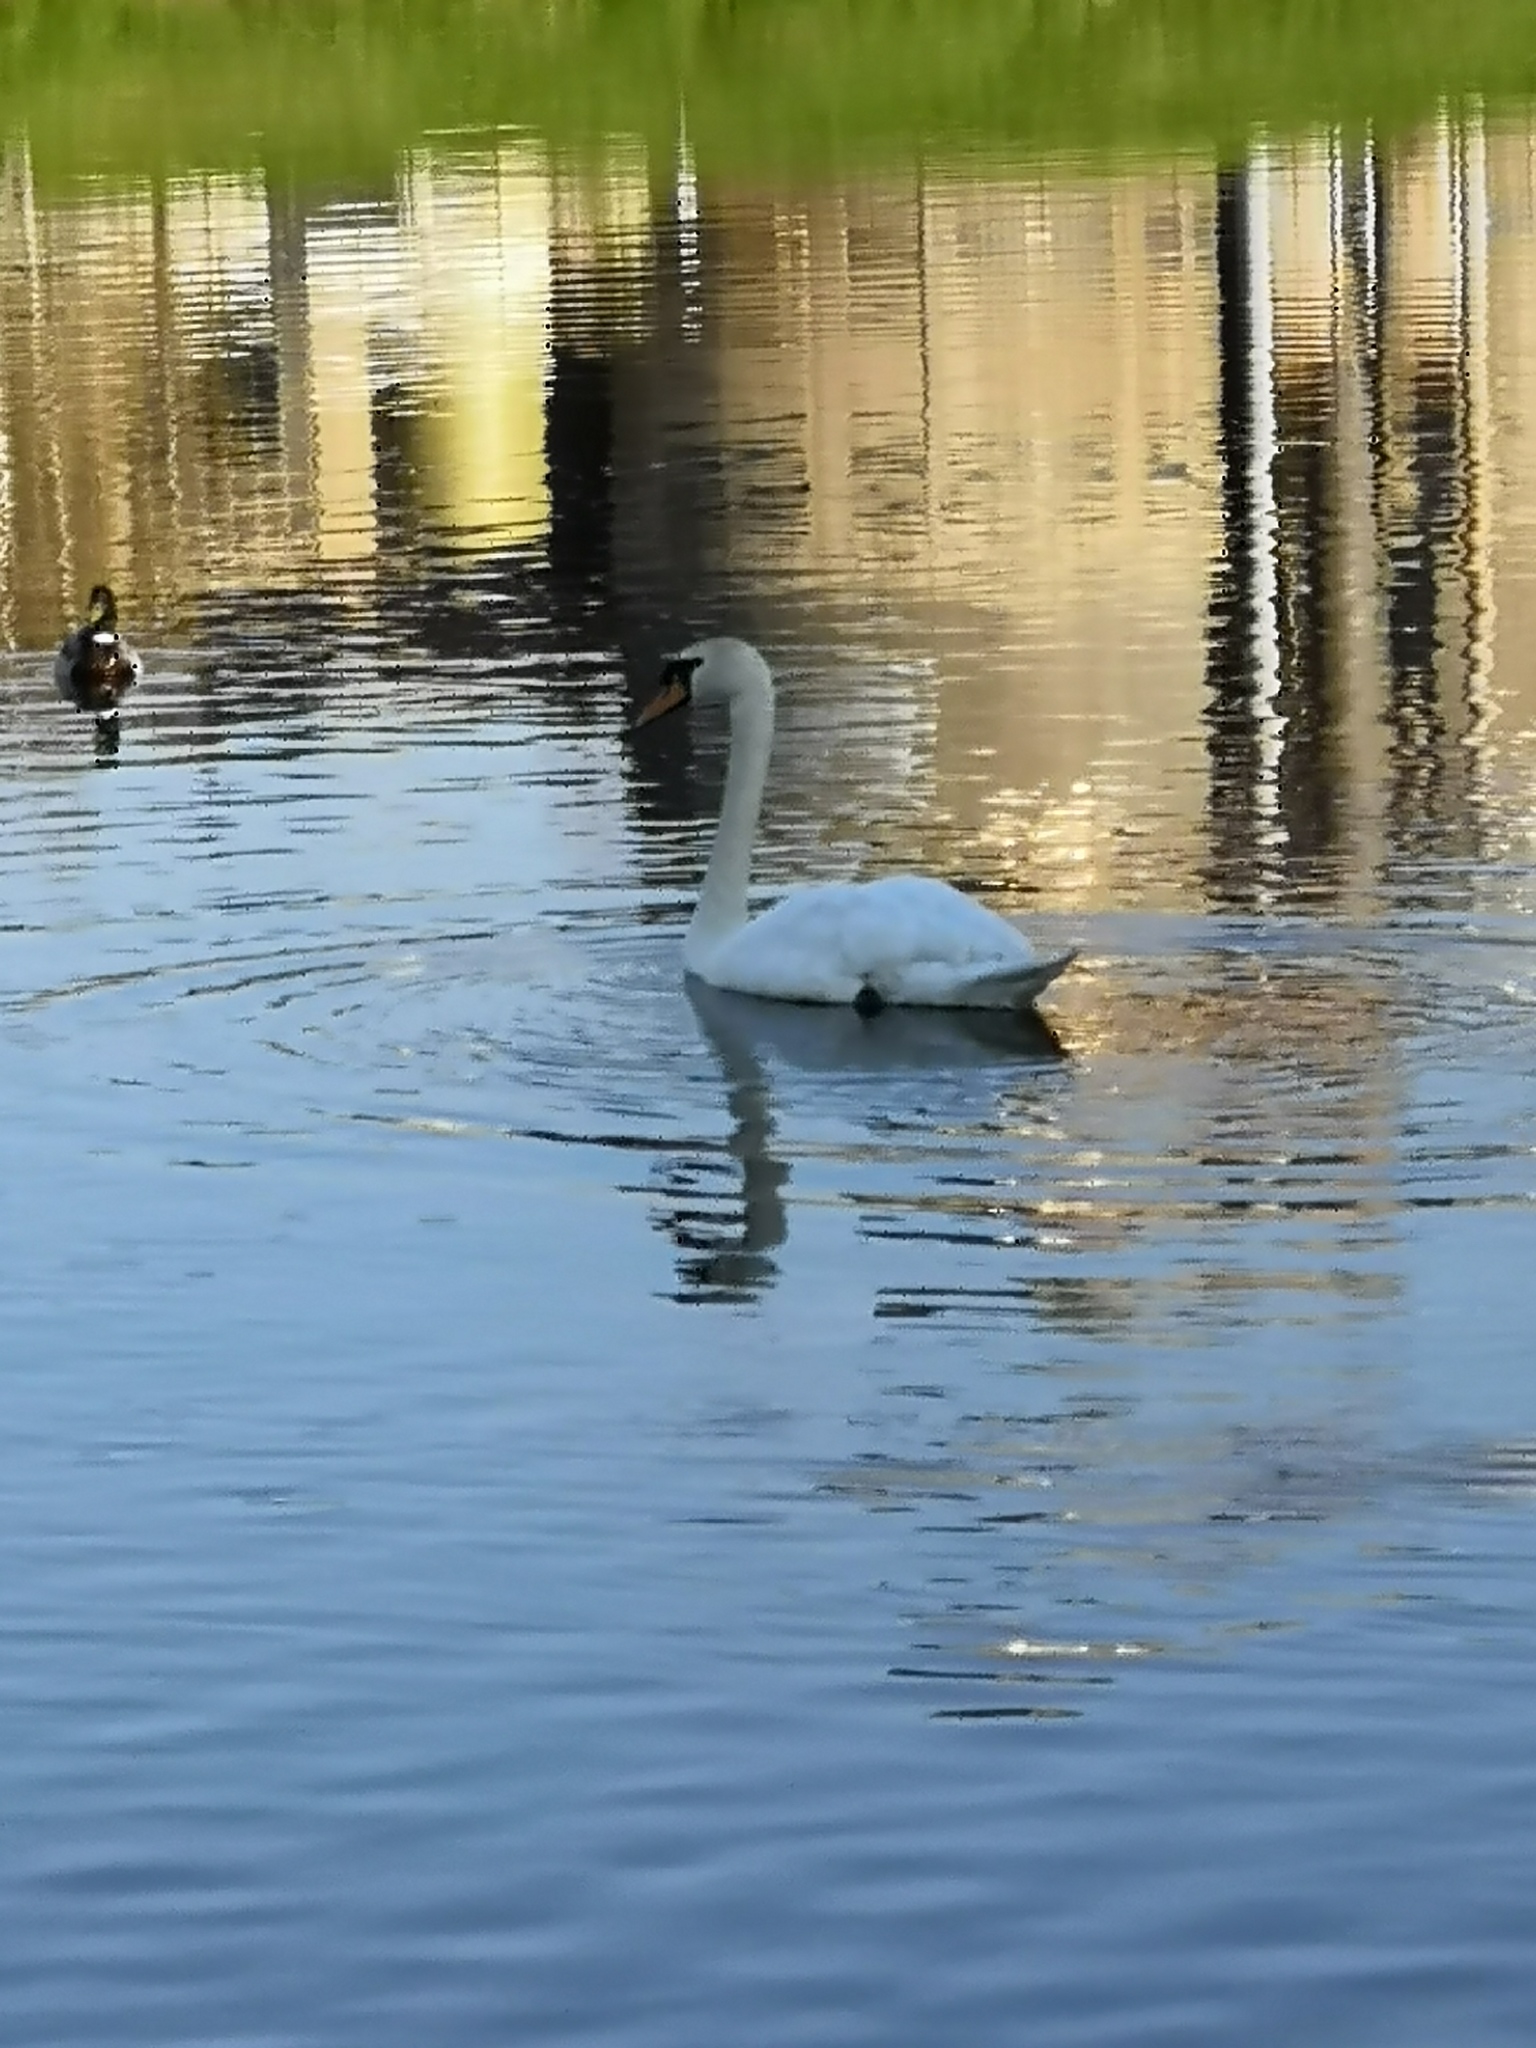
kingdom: Animalia
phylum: Chordata
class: Aves
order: Anseriformes
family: Anatidae
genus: Cygnus
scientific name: Cygnus olor
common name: Mute swan
